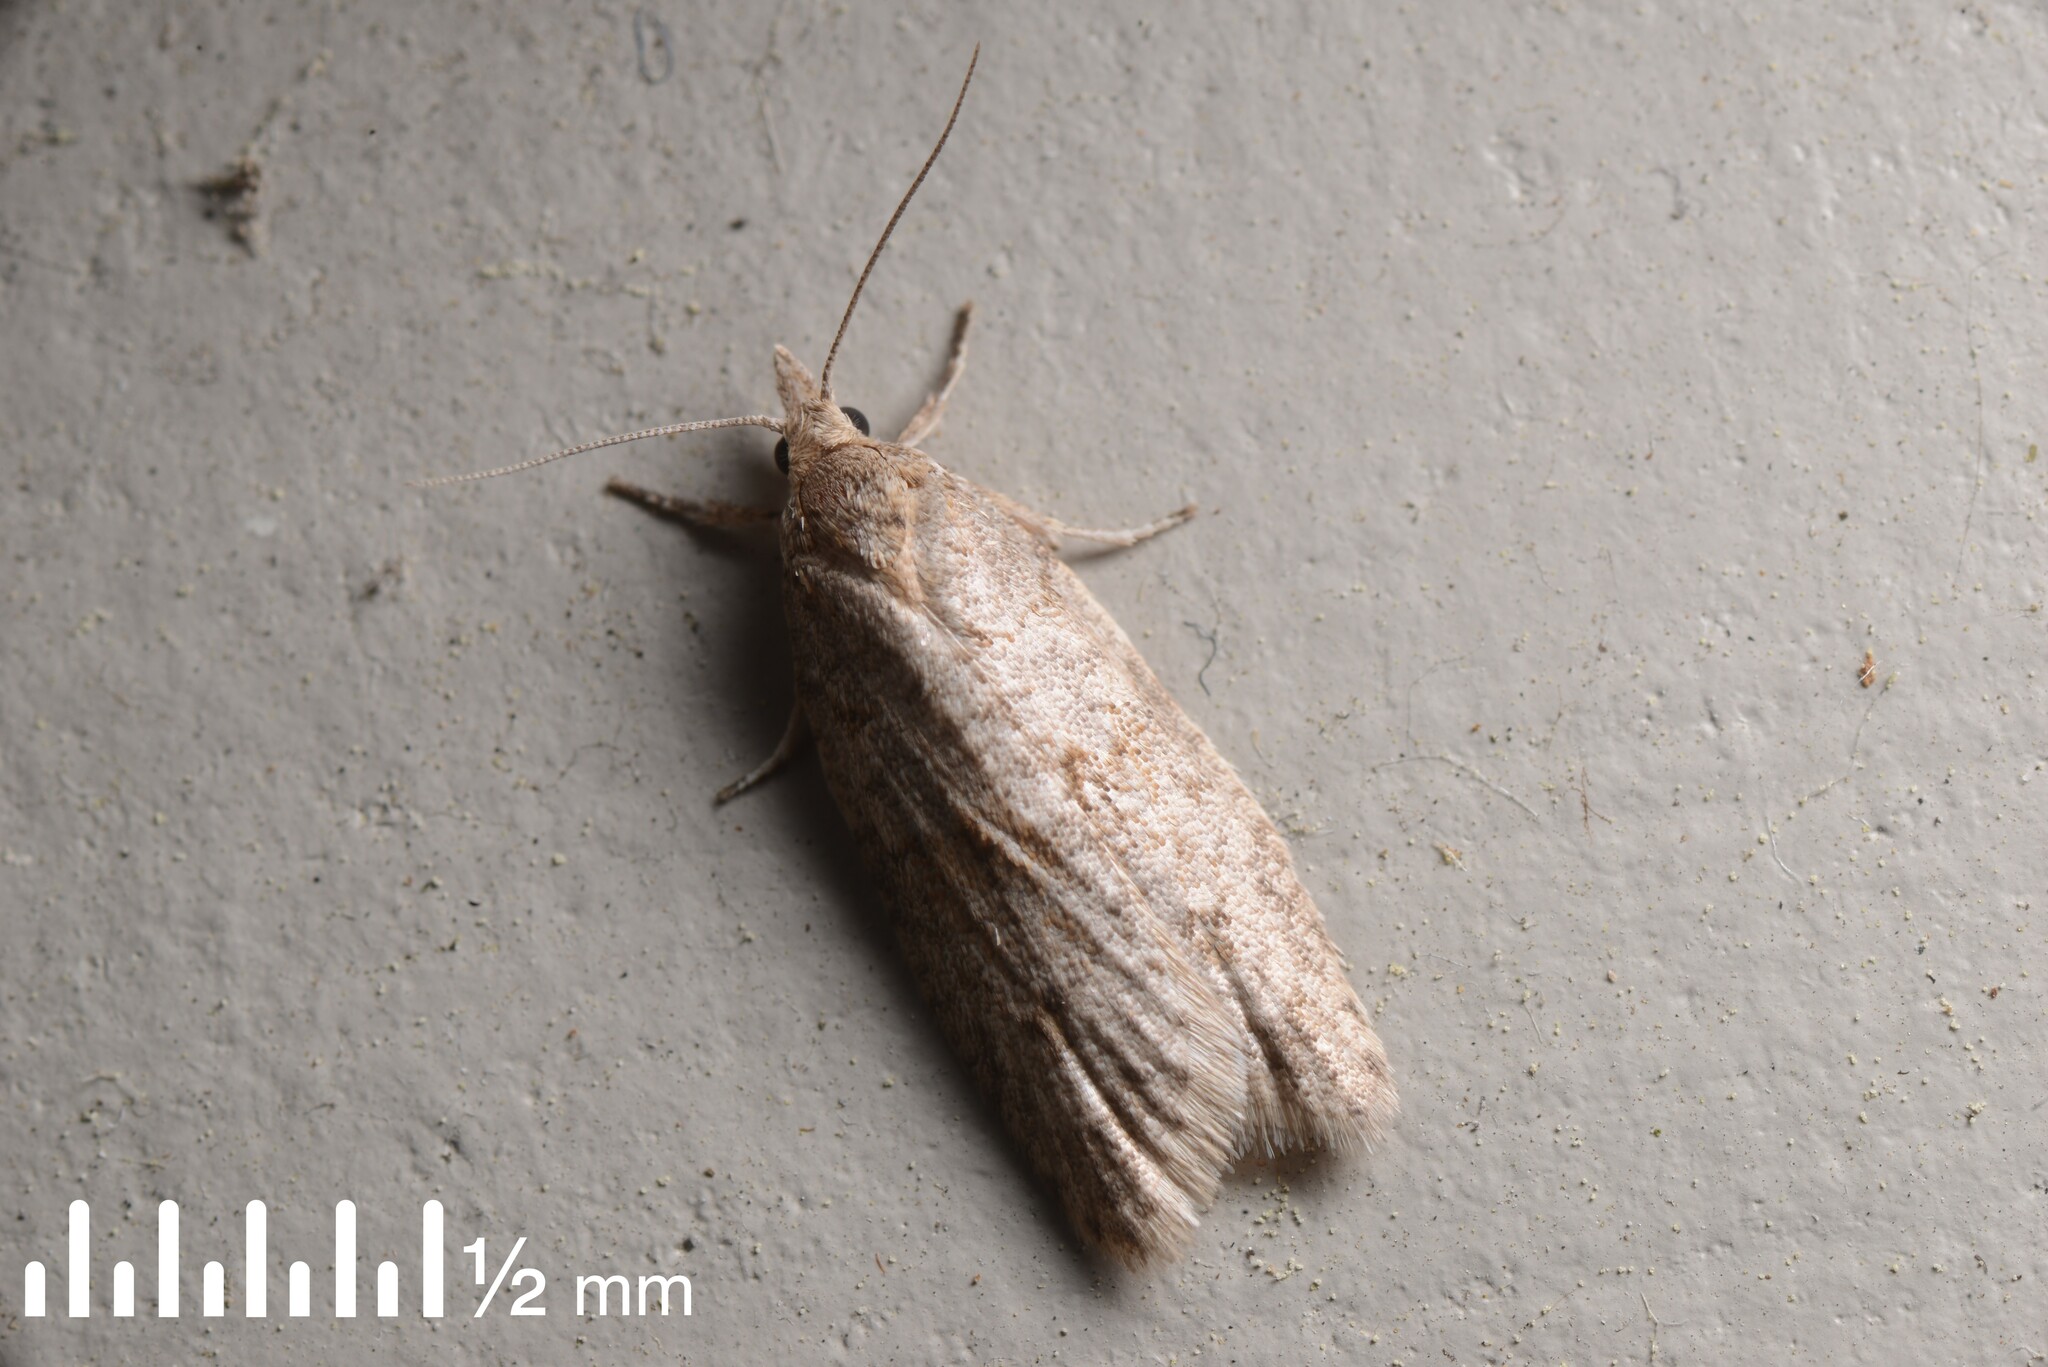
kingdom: Animalia
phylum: Arthropoda
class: Insecta
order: Lepidoptera
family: Tortricidae
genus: Prothelymna
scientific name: Prothelymna antiquana
